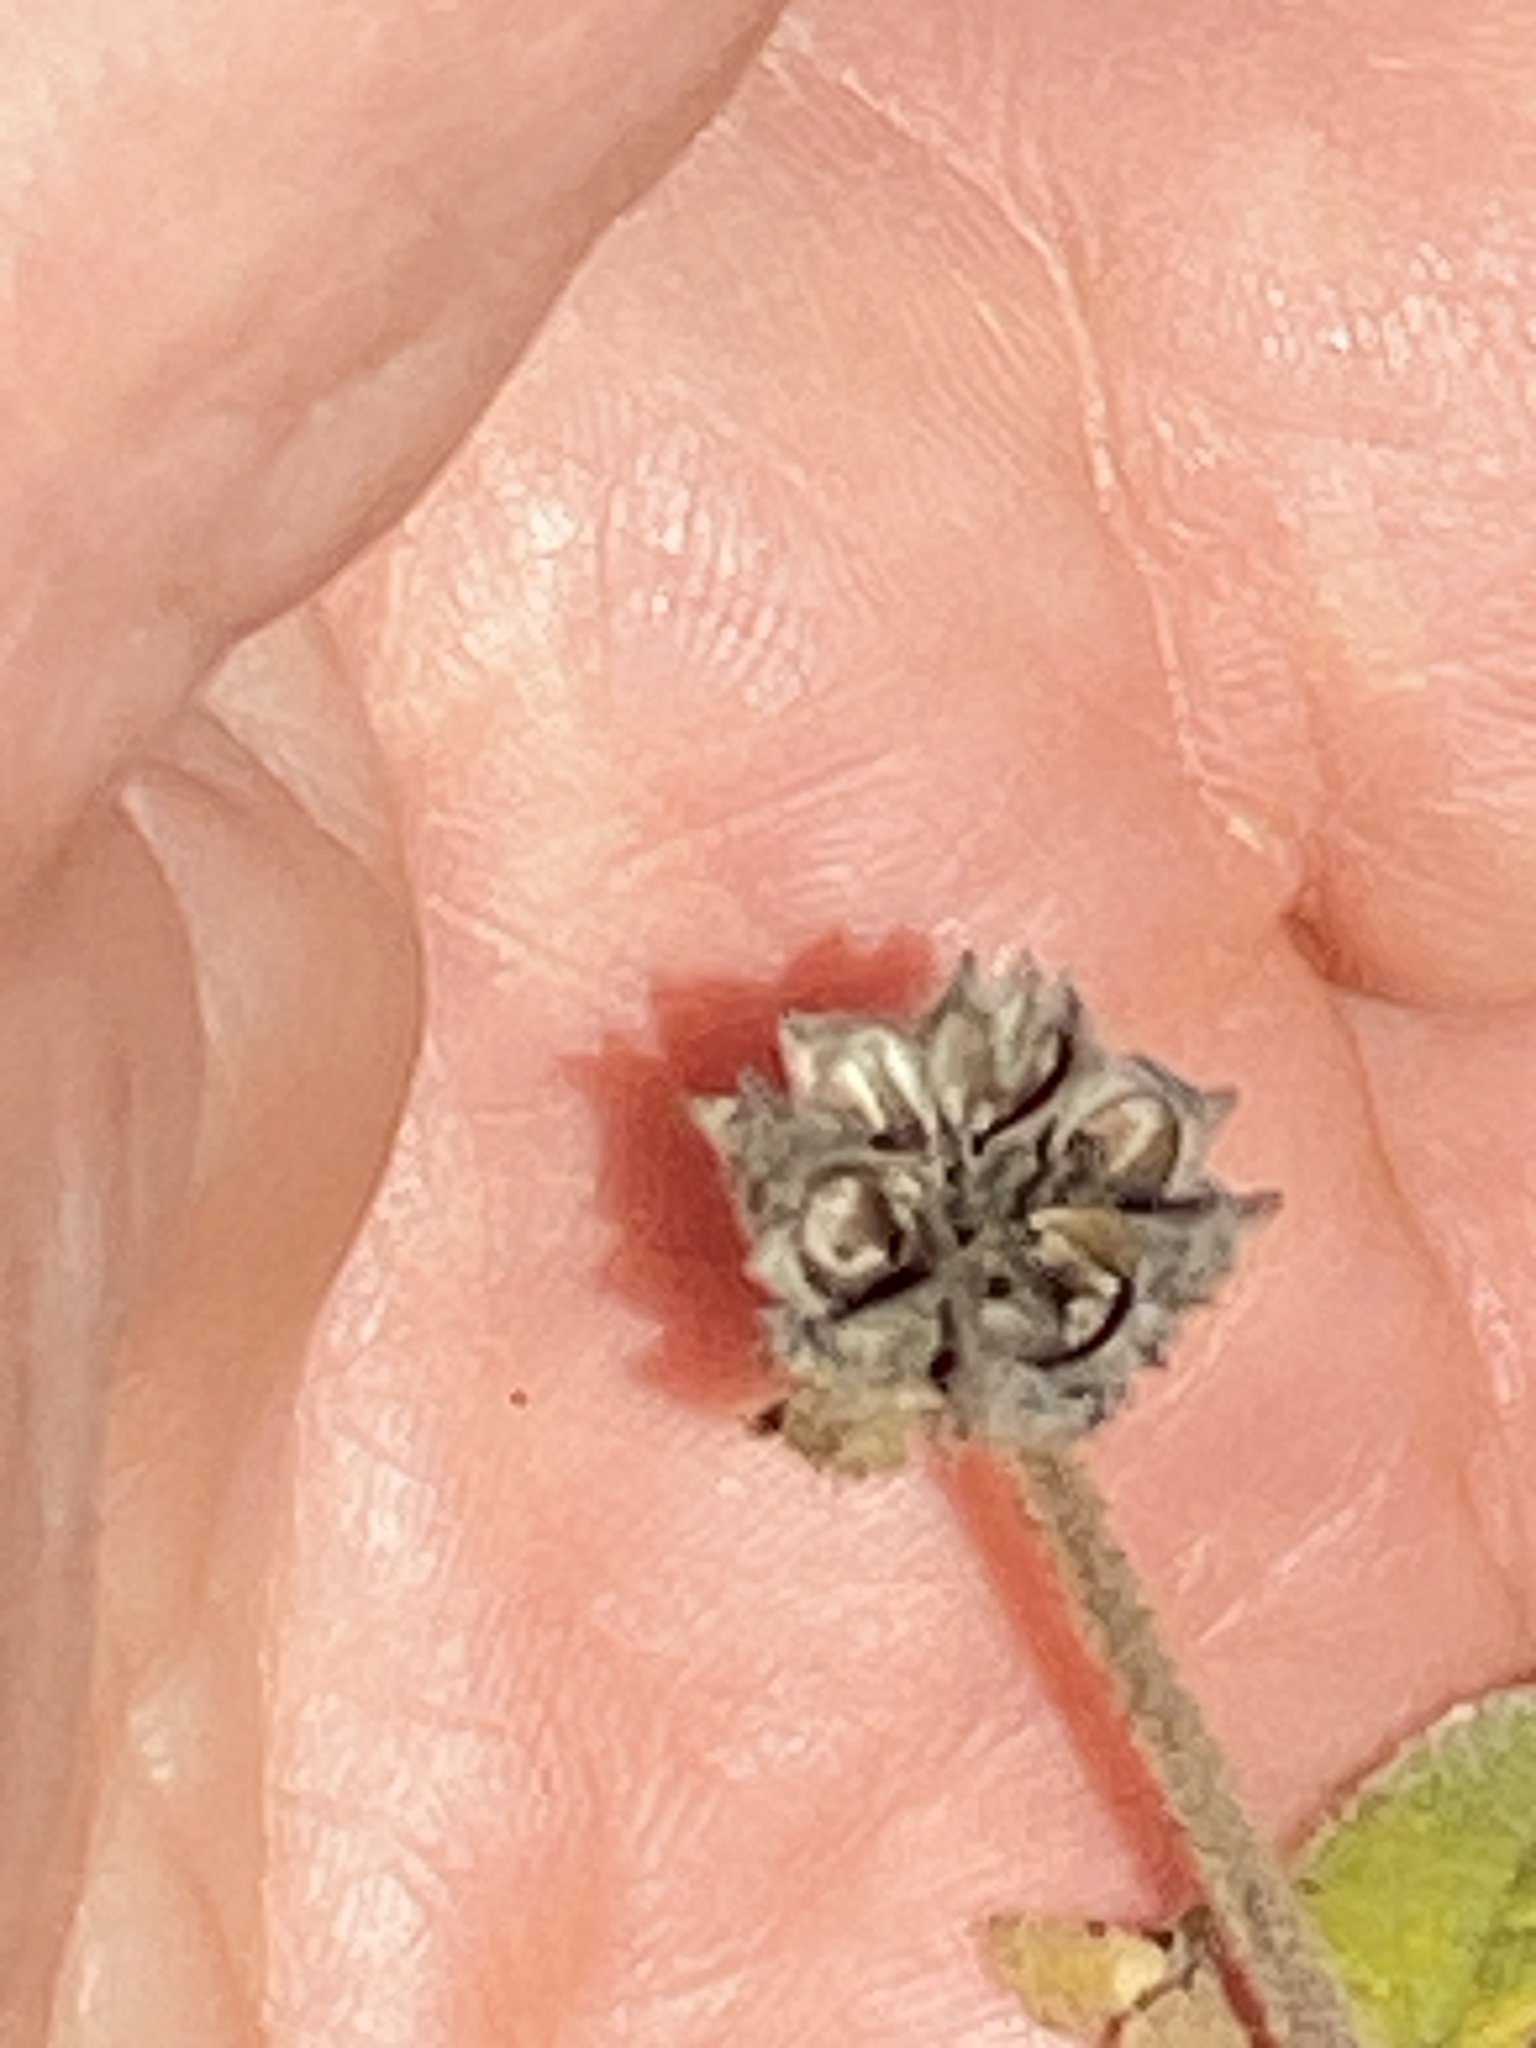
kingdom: Plantae
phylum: Tracheophyta
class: Magnoliopsida
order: Malvales
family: Malvaceae
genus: Allowissadula
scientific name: Allowissadula holosericea
